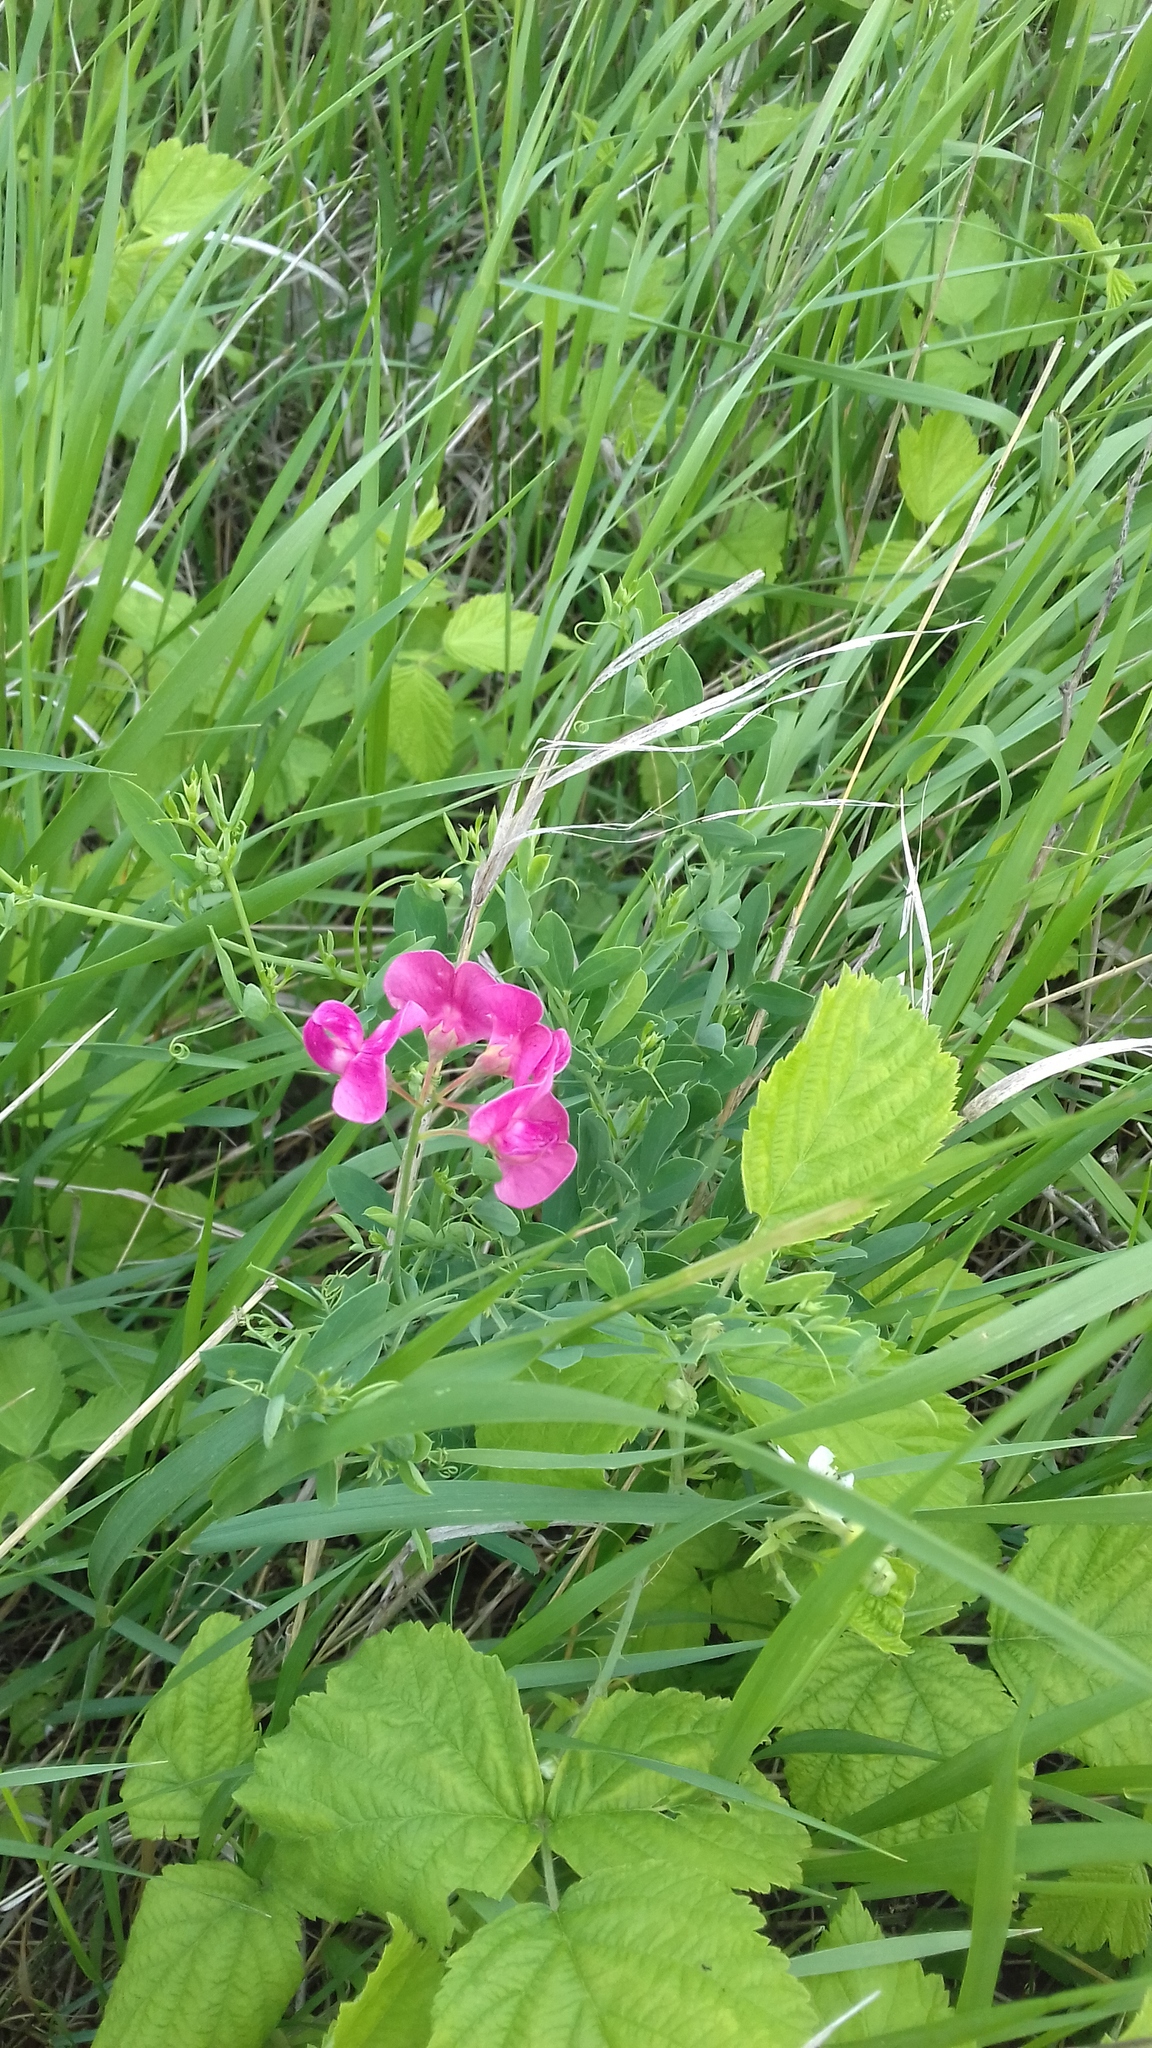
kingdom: Plantae
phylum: Tracheophyta
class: Magnoliopsida
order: Fabales
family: Fabaceae
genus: Lathyrus
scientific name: Lathyrus tuberosus
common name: Tuberous pea
